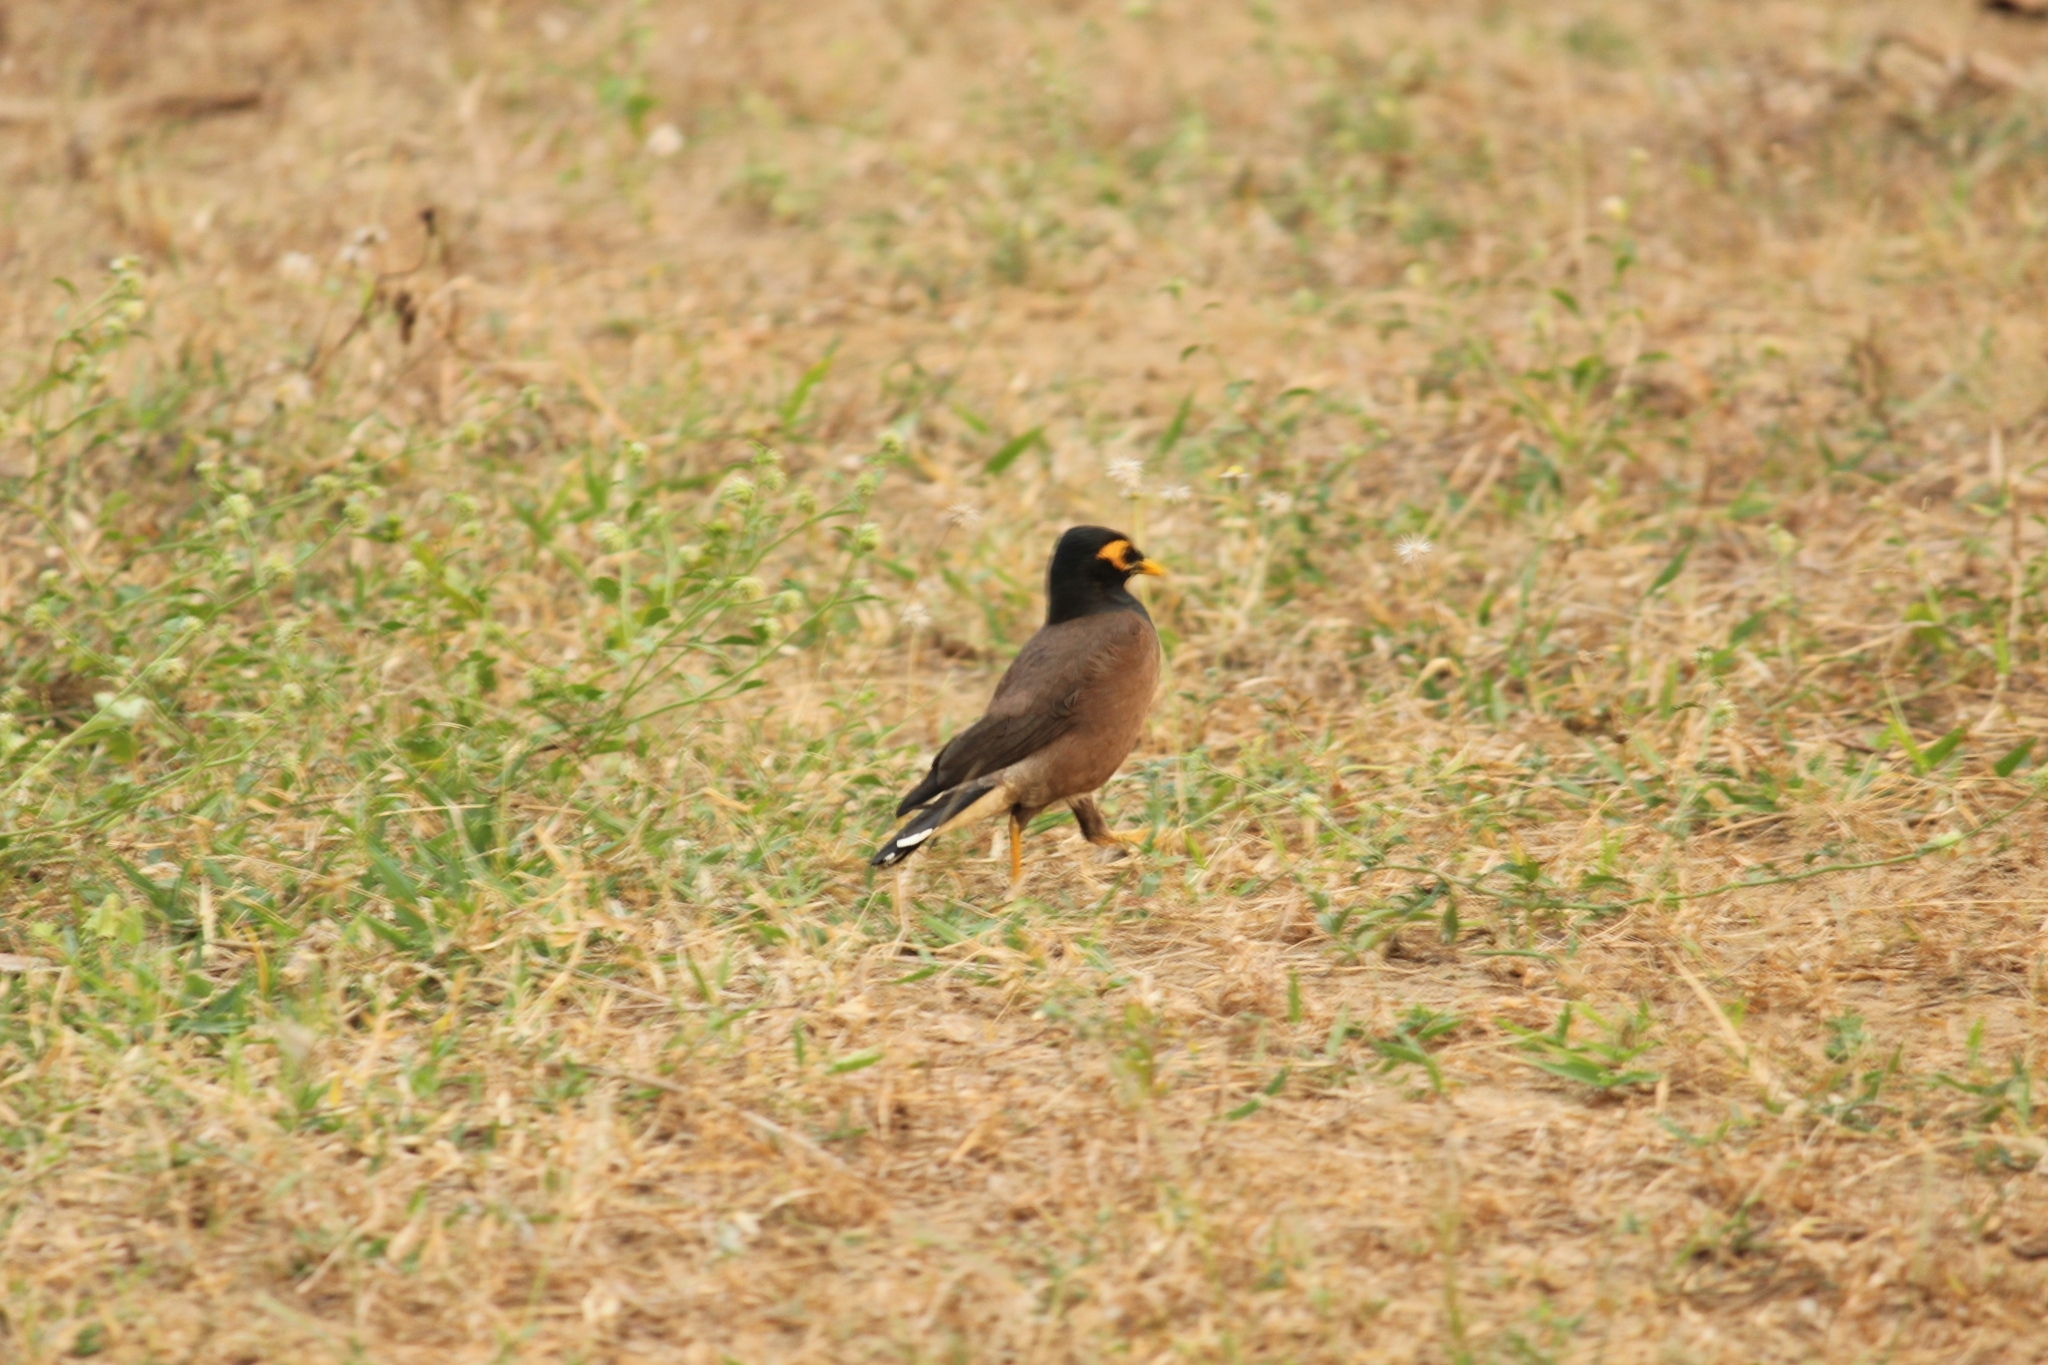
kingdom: Animalia
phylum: Chordata
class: Aves
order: Passeriformes
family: Sturnidae
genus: Acridotheres
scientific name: Acridotheres tristis
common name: Common myna
